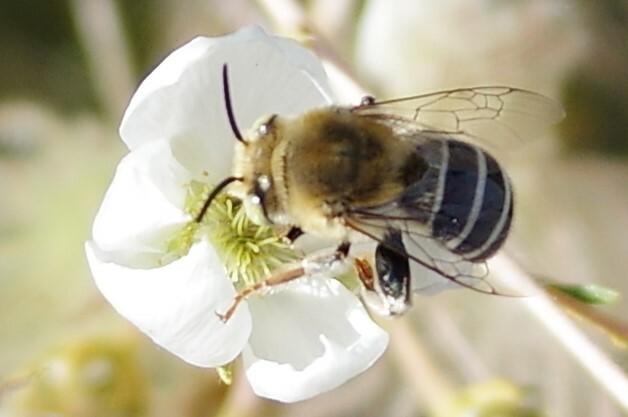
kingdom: Animalia
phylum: Arthropoda
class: Insecta
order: Hymenoptera
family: Apidae
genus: Anthophora
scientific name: Anthophora californica
